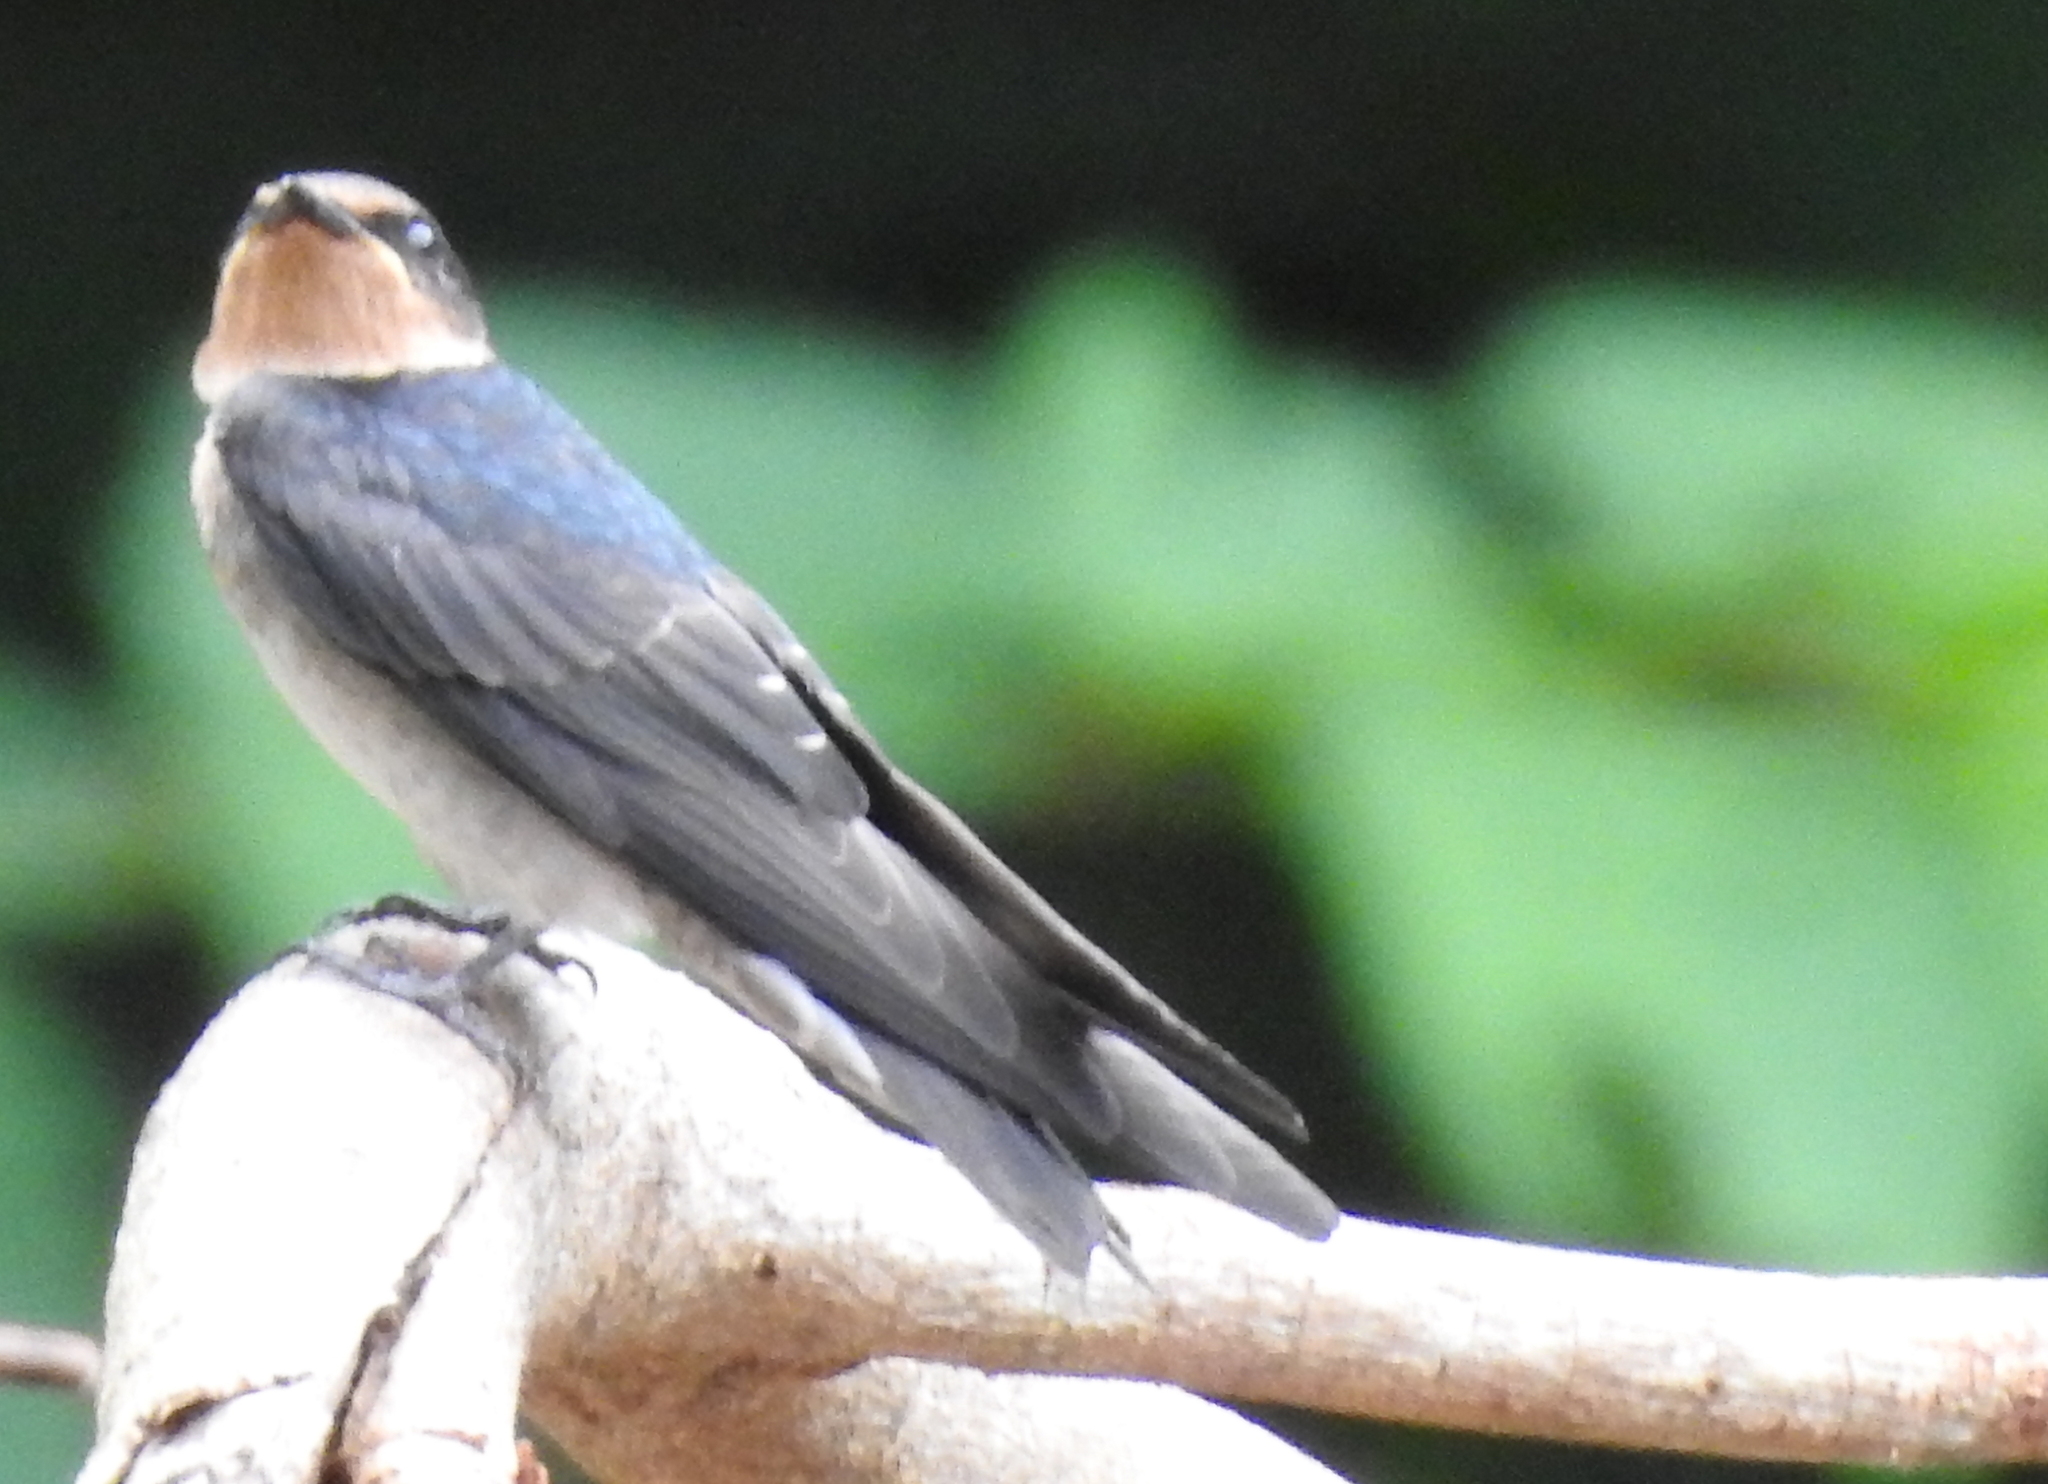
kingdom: Animalia
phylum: Chordata
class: Aves
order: Passeriformes
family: Hirundinidae
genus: Hirundo
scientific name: Hirundo tahitica
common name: Pacific swallow
